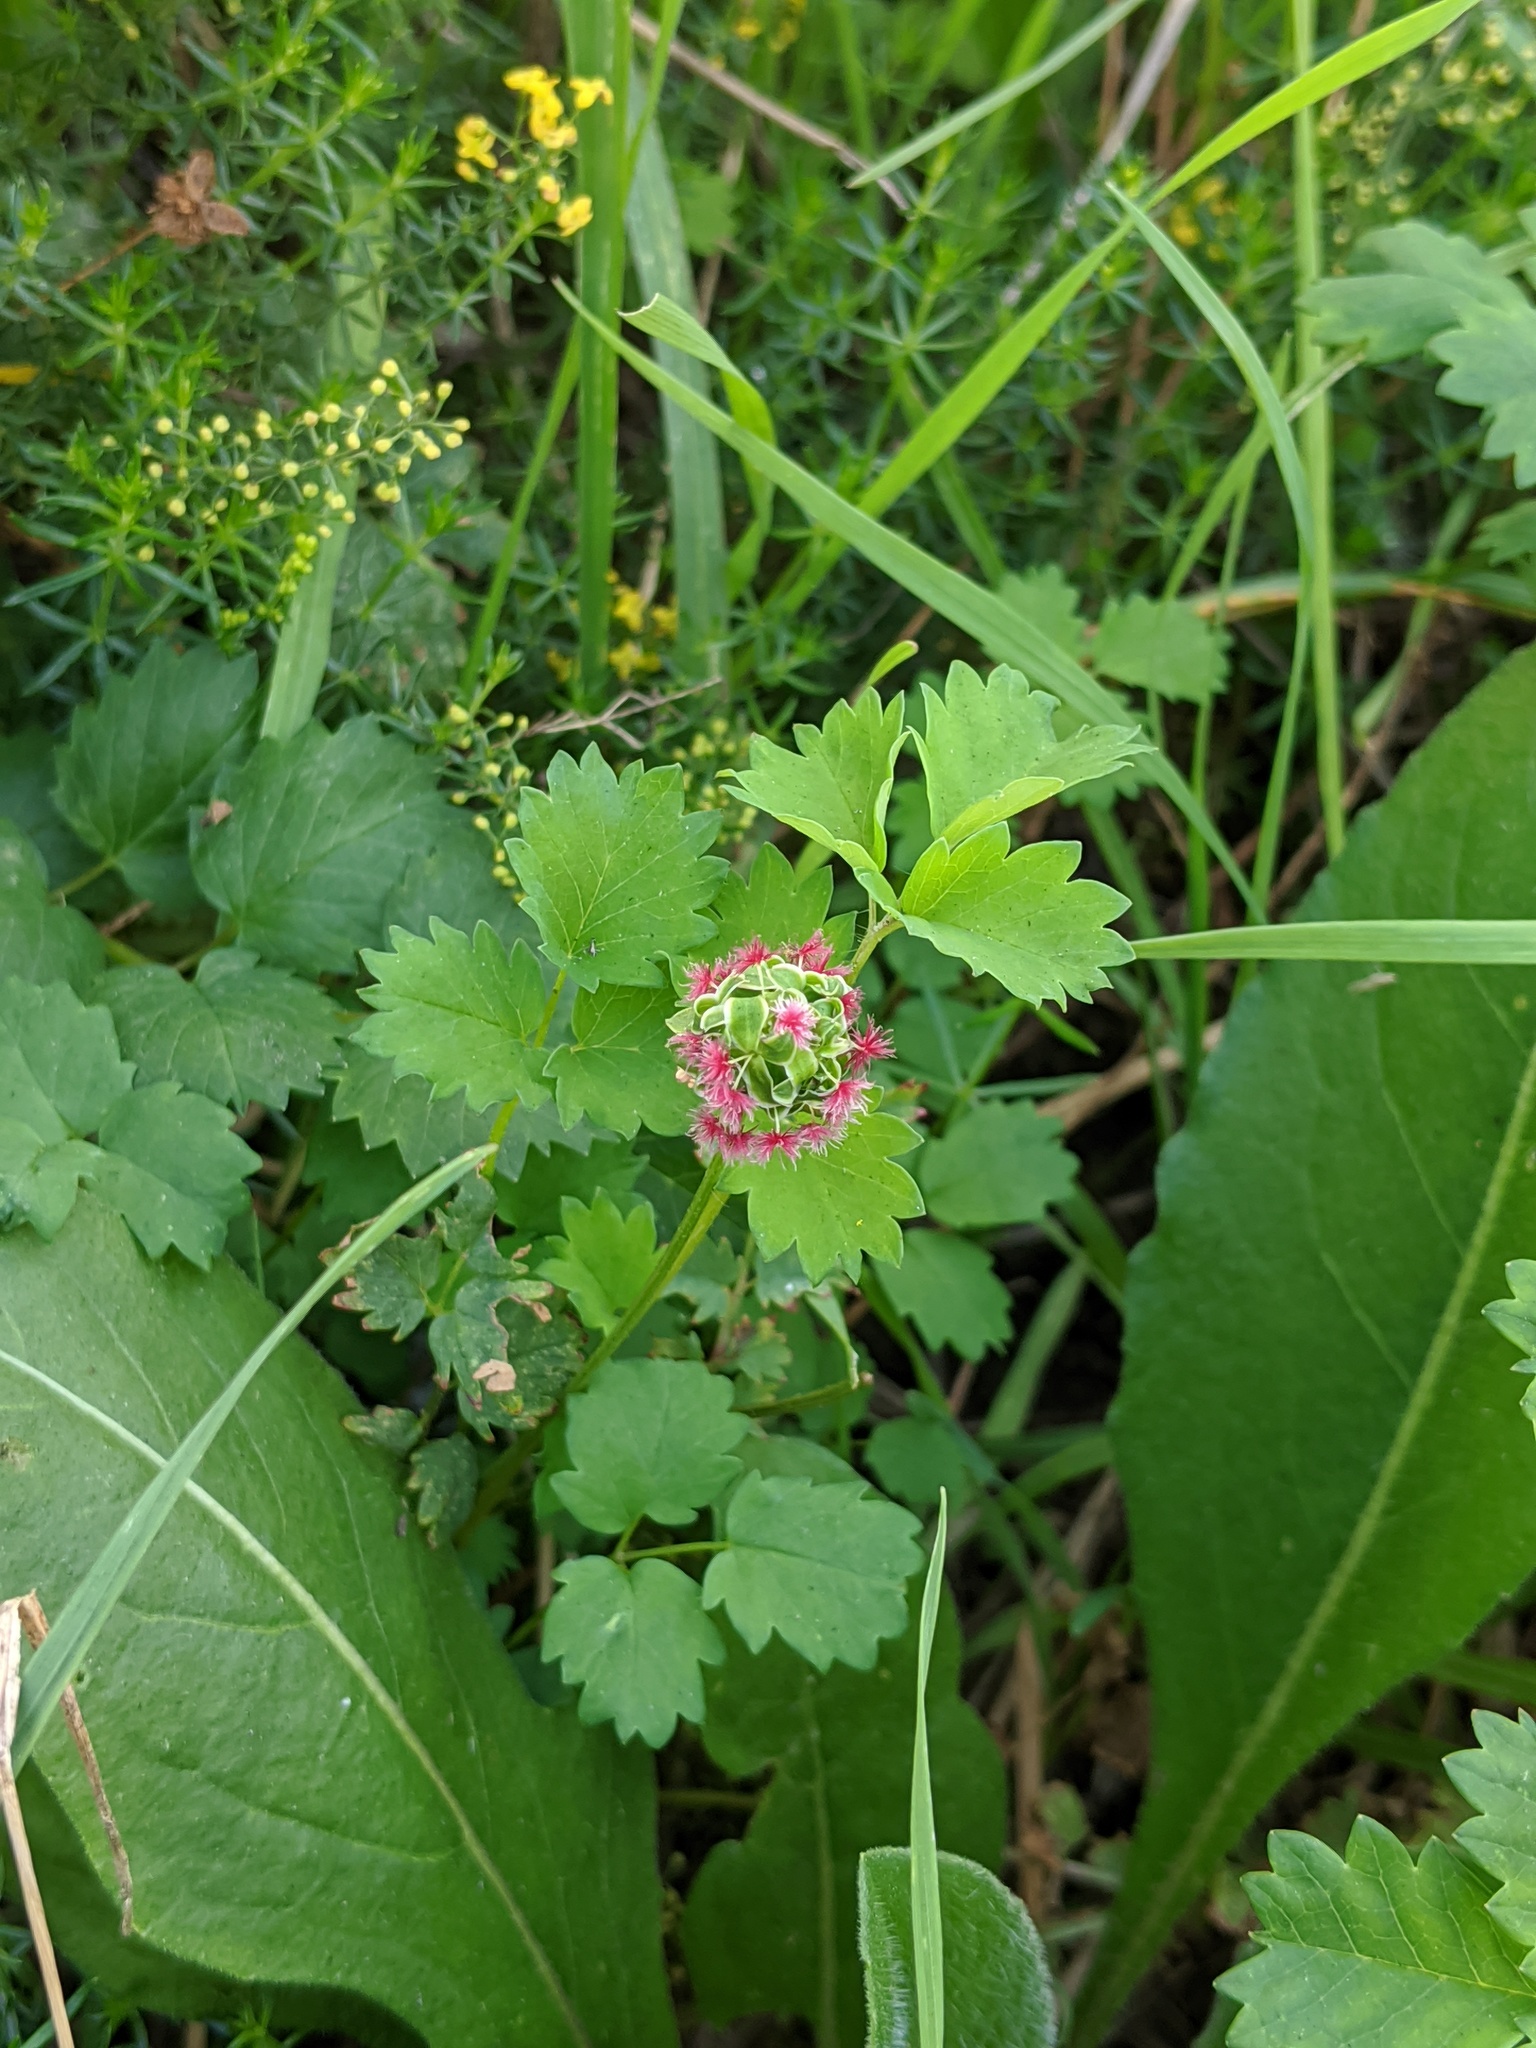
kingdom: Plantae
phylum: Tracheophyta
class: Magnoliopsida
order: Rosales
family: Rosaceae
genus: Poterium
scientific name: Poterium sanguisorba
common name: Salad burnet
